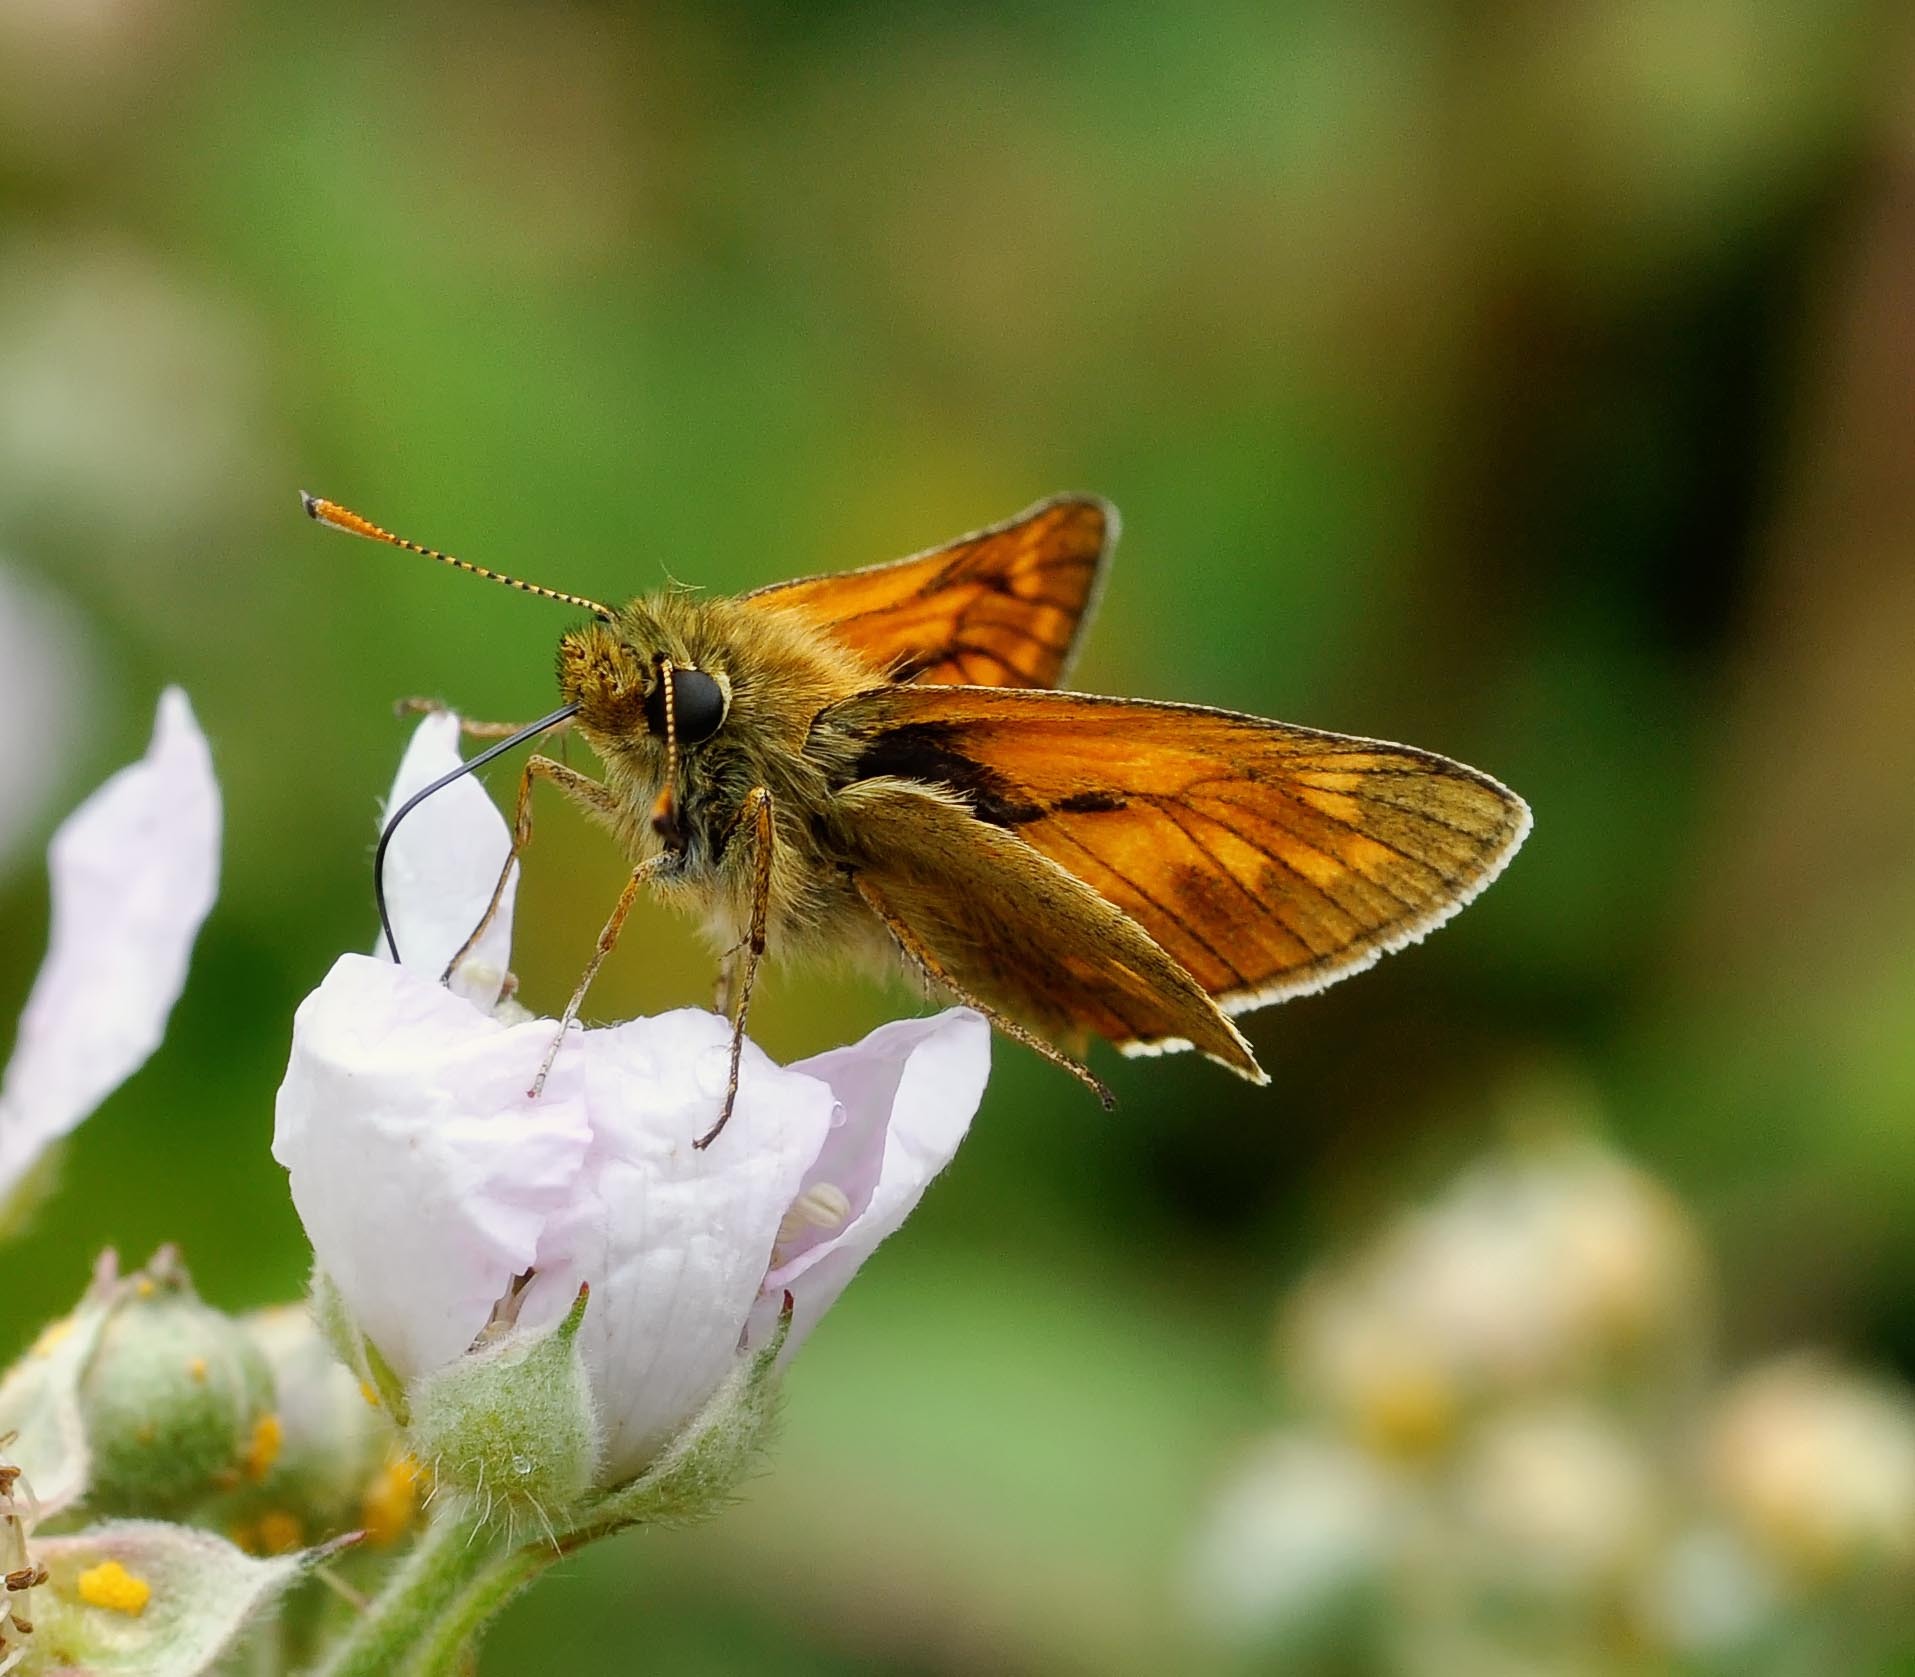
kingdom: Animalia
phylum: Arthropoda
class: Insecta
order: Lepidoptera
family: Hesperiidae
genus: Ochlodes
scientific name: Ochlodes venata
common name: Large skipper
